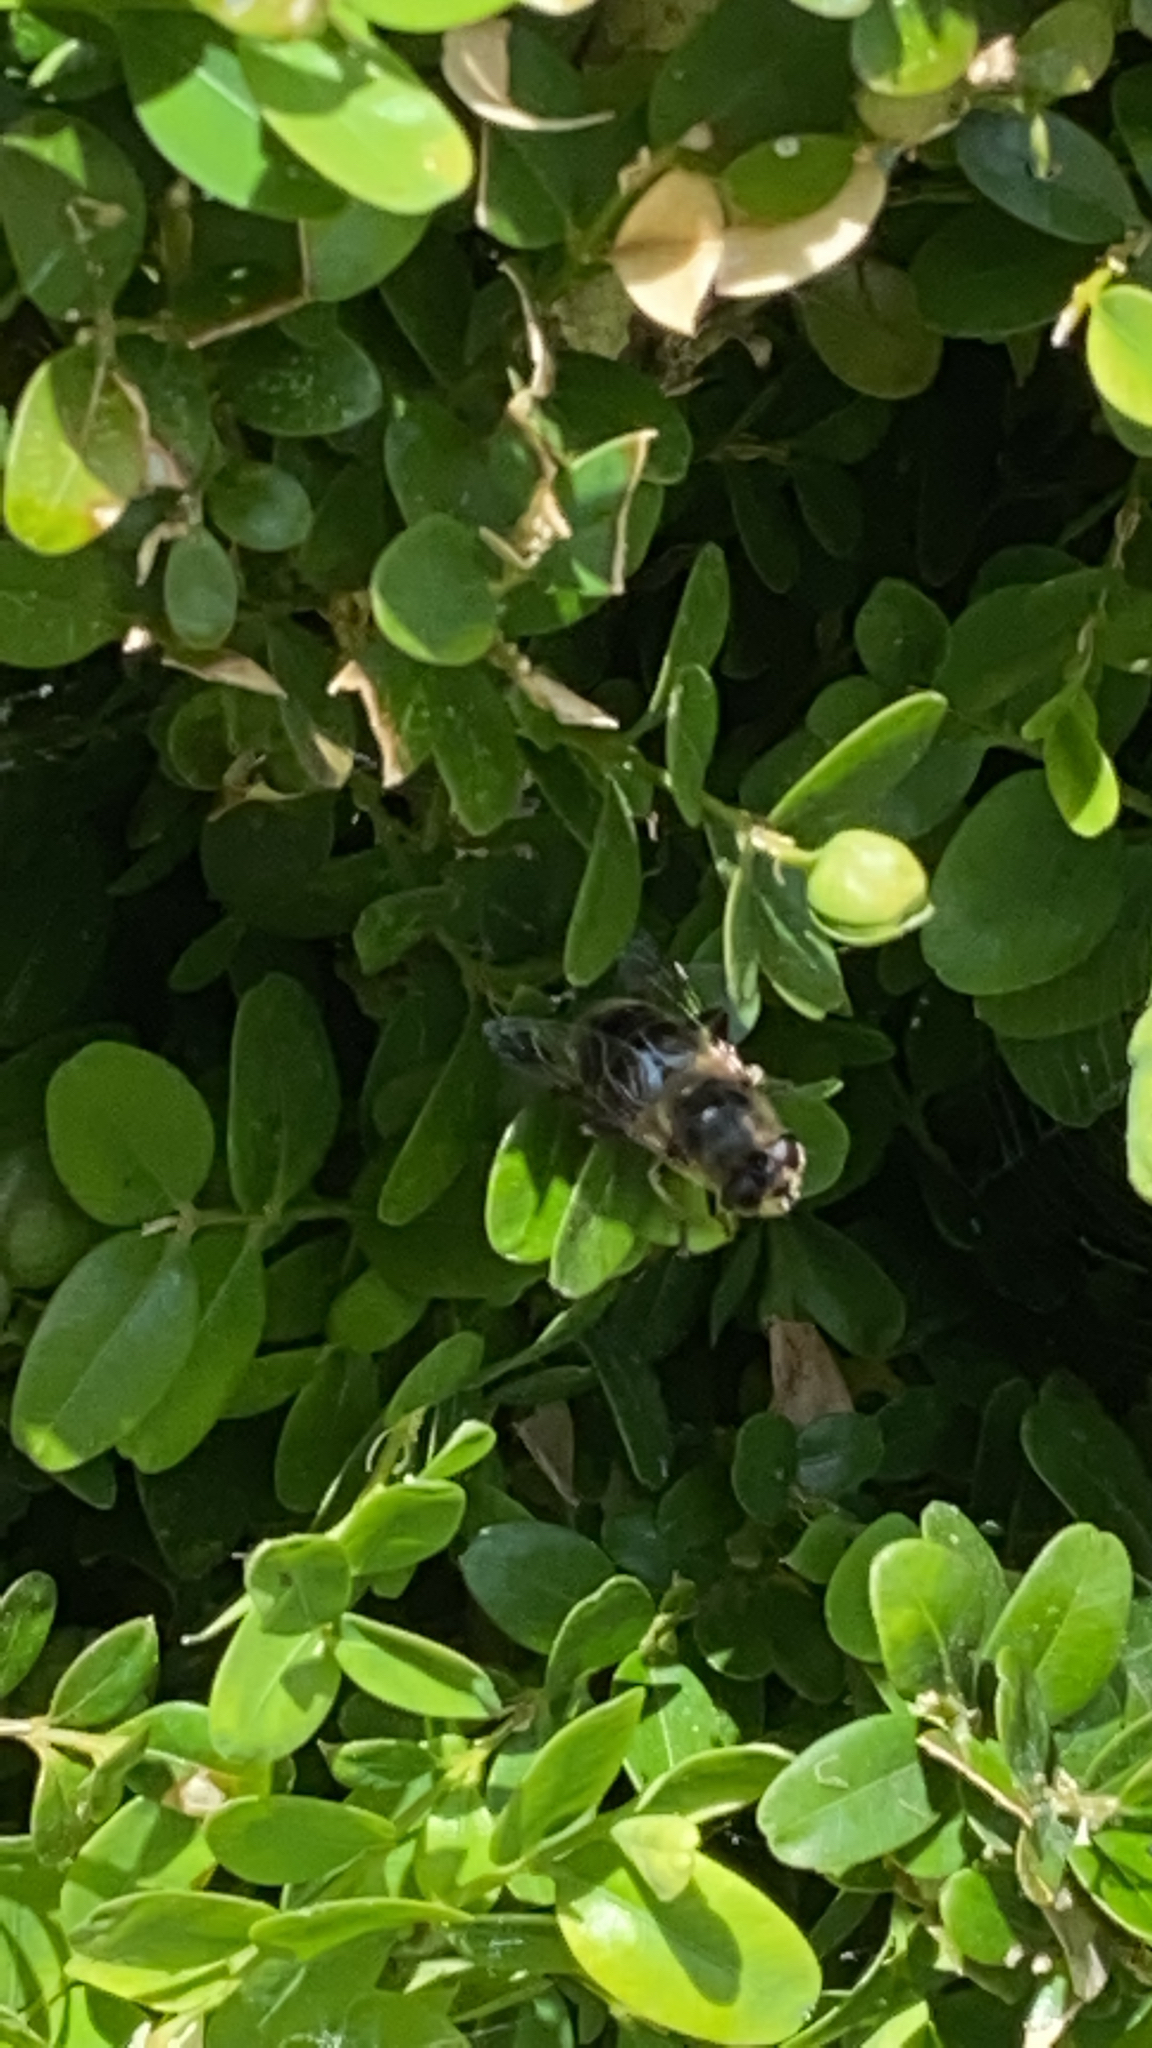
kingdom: Animalia
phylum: Arthropoda
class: Insecta
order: Diptera
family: Syrphidae
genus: Eristalis
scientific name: Eristalis tenax
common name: Drone fly
